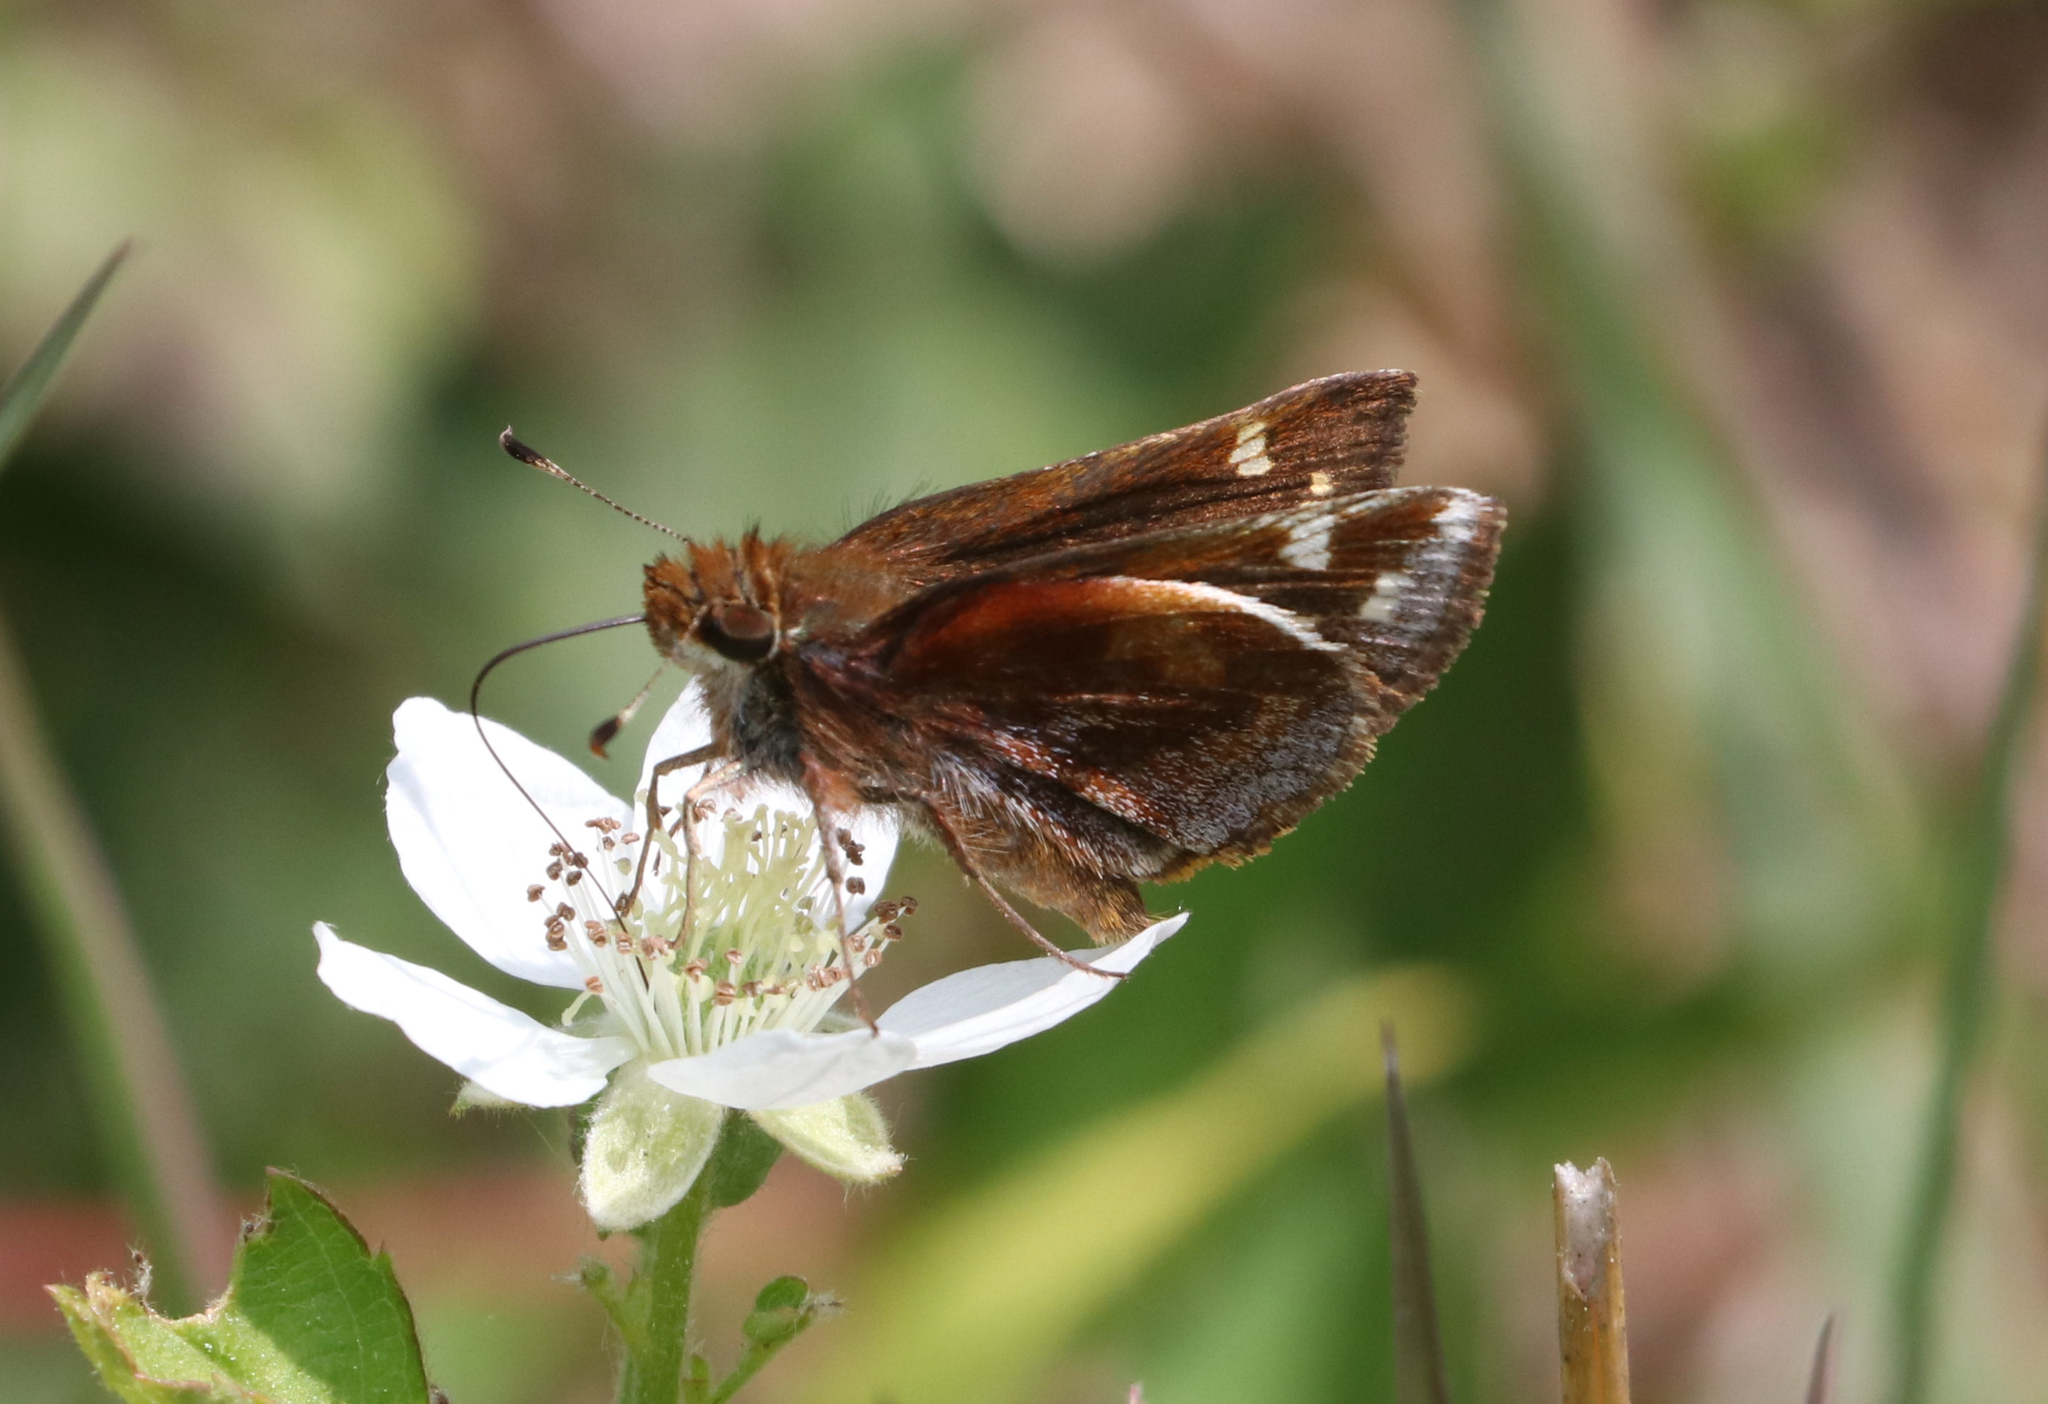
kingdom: Animalia
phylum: Arthropoda
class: Insecta
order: Lepidoptera
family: Hesperiidae
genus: Lon
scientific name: Lon zabulon
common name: Zabulon skipper
